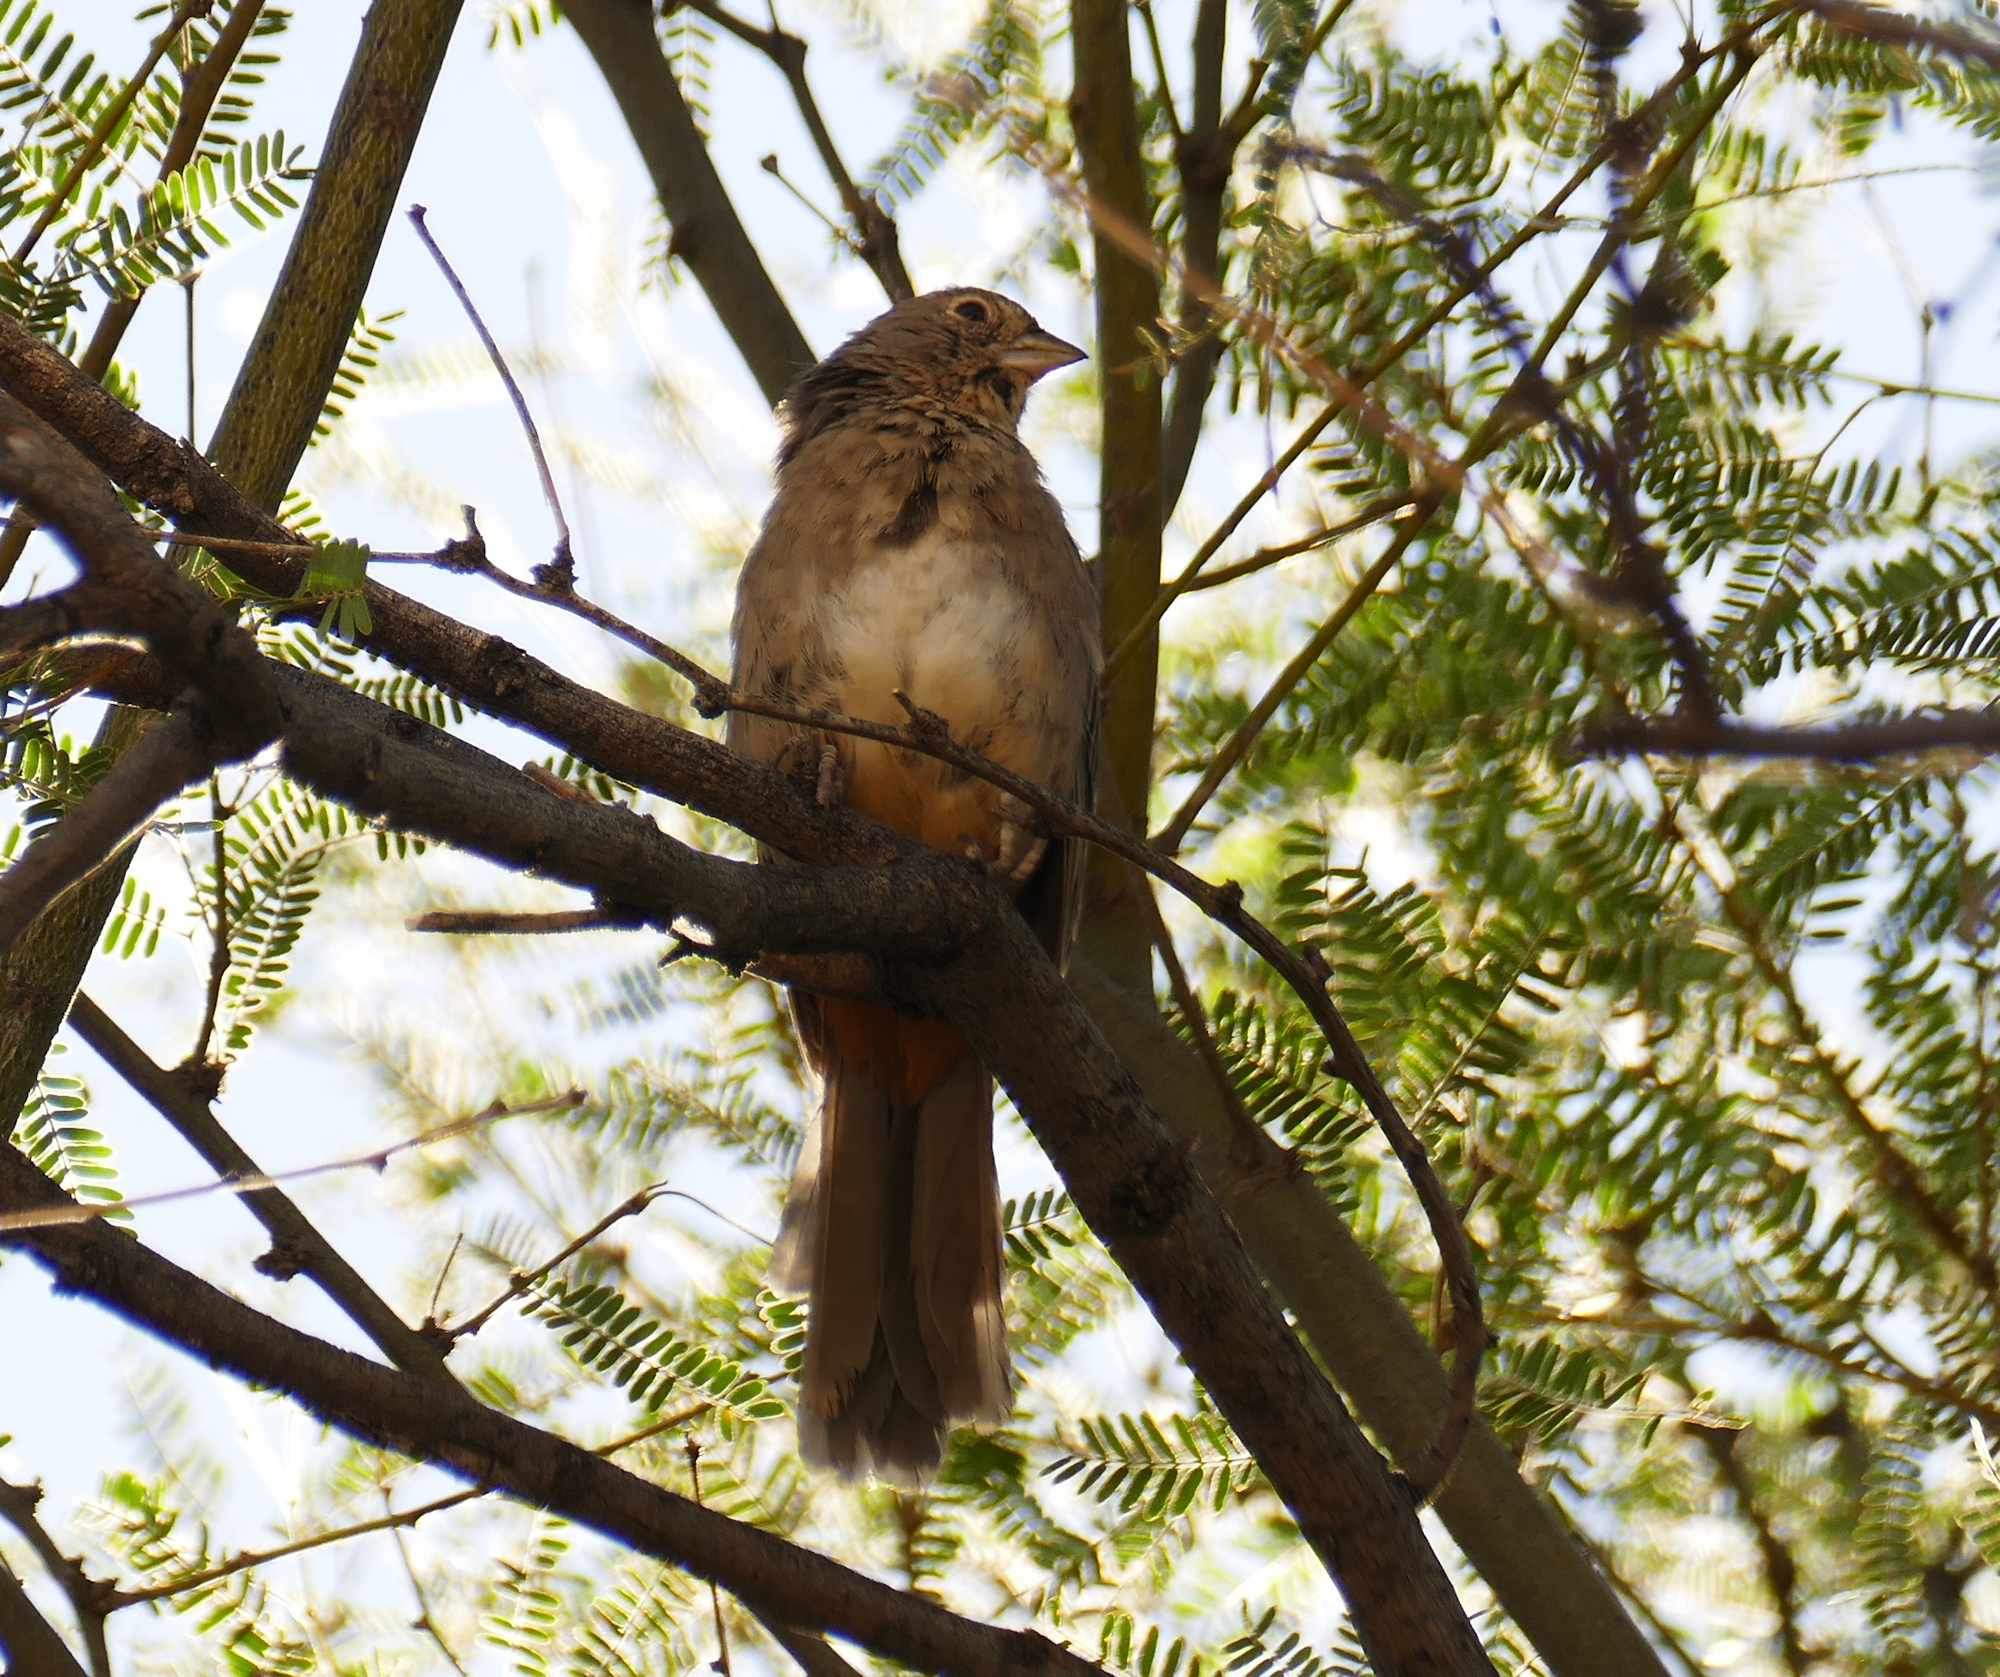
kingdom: Animalia
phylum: Chordata
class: Aves
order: Passeriformes
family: Passerellidae
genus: Melozone
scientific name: Melozone fusca
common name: Canyon towhee
